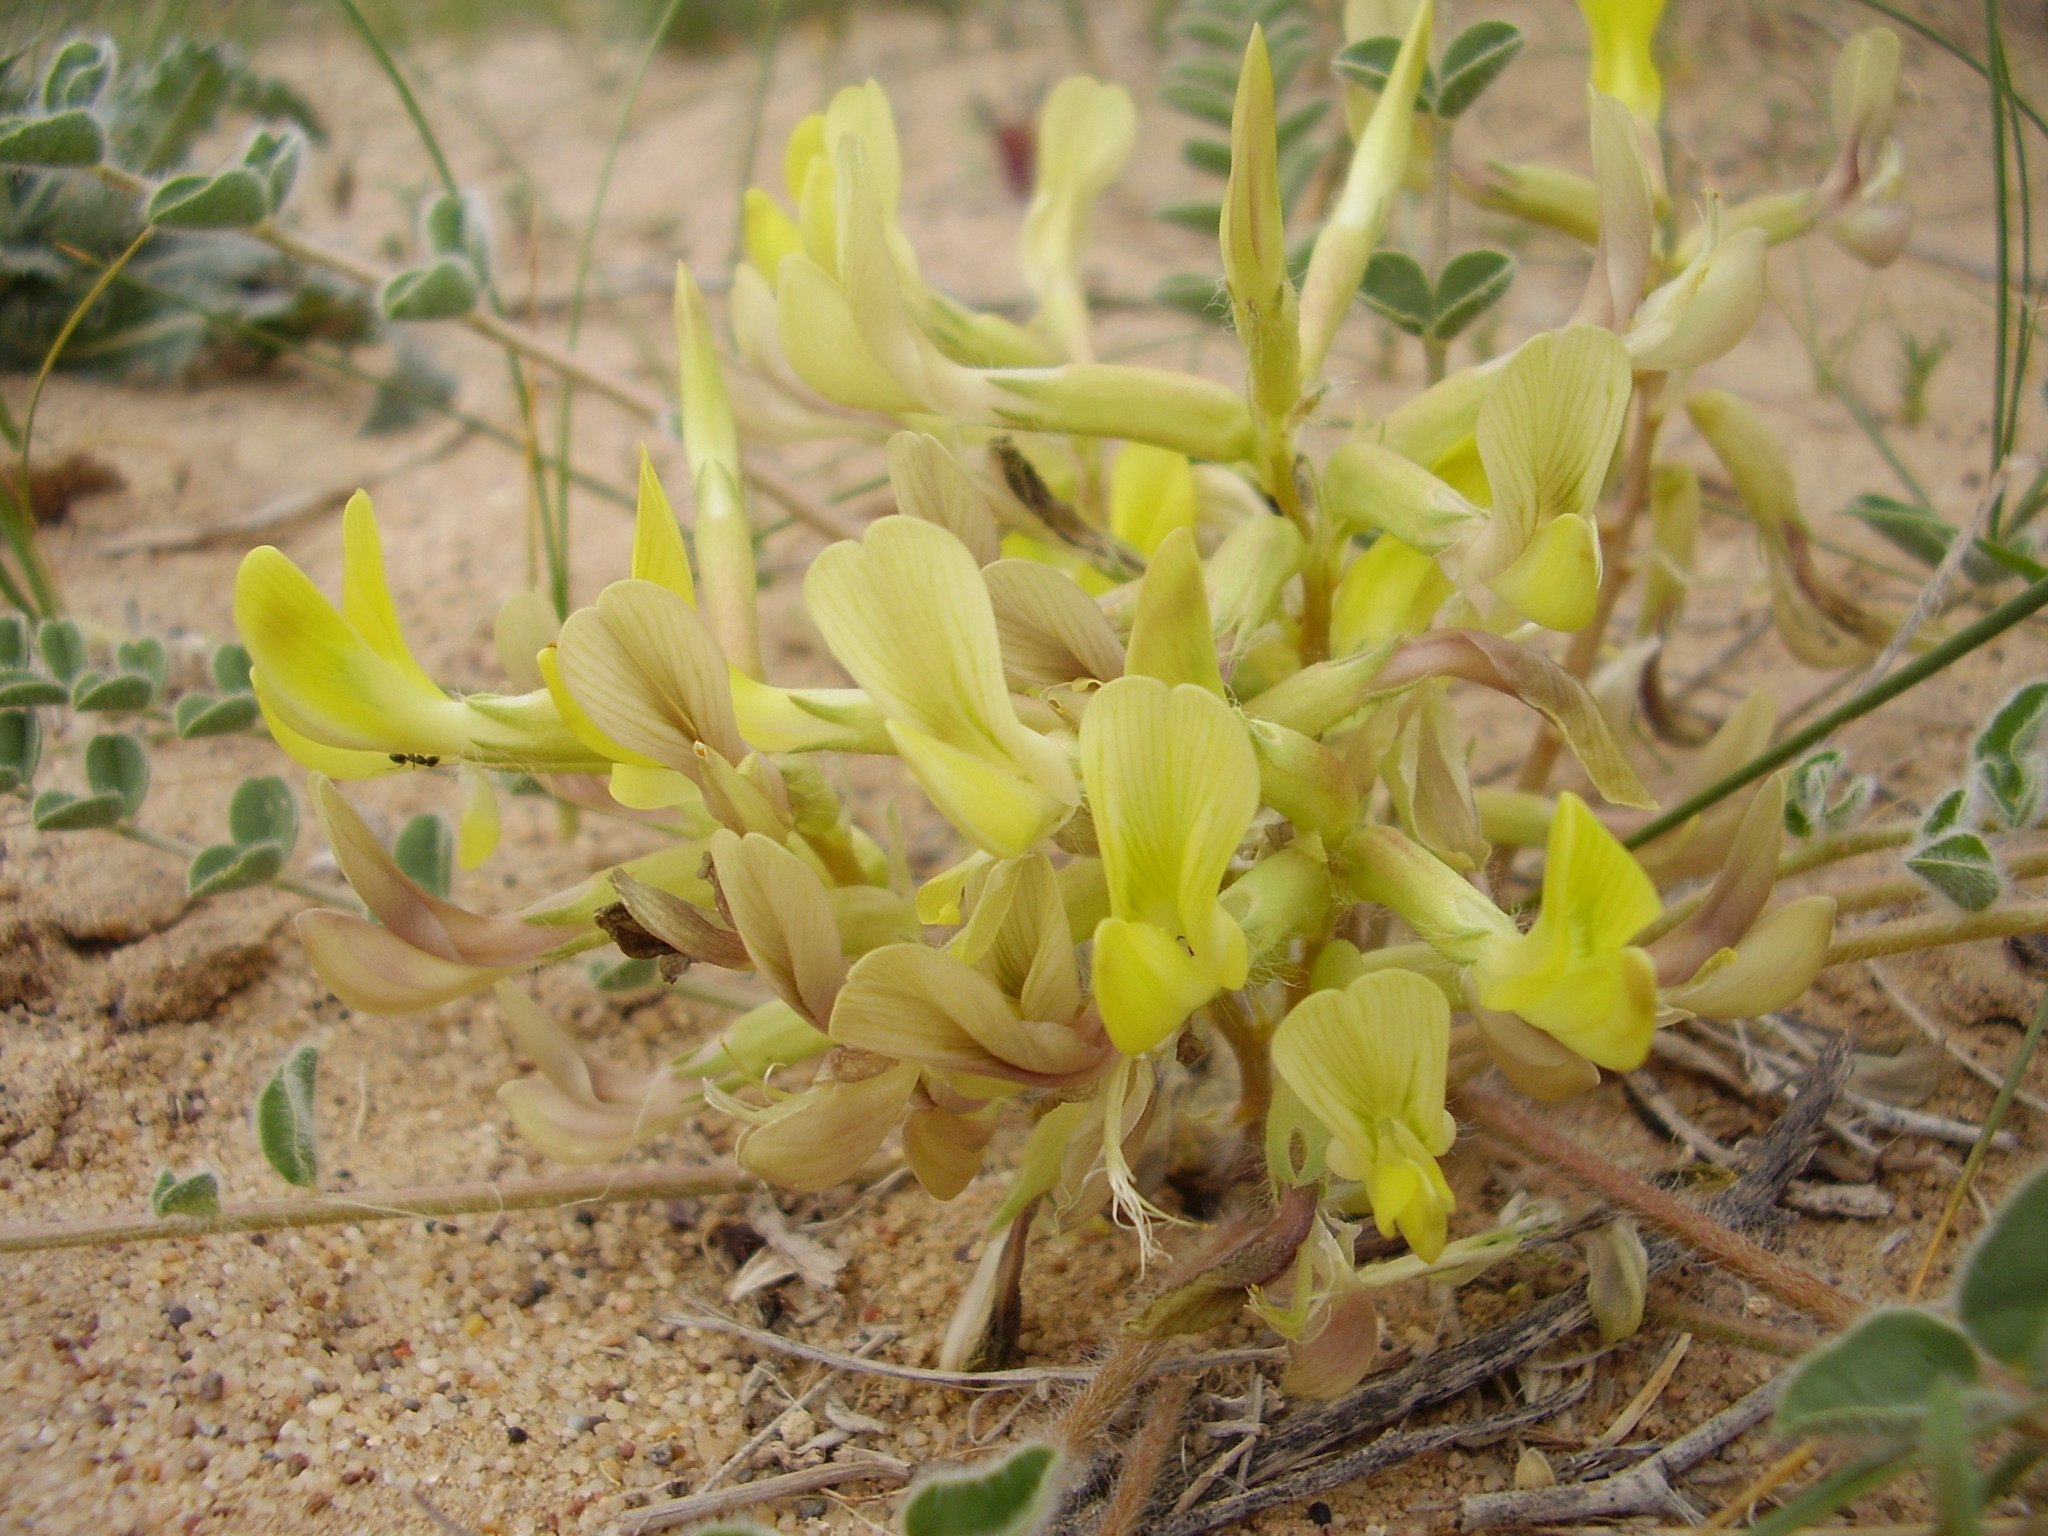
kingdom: Plantae
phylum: Tracheophyta
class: Magnoliopsida
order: Fabales
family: Fabaceae
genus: Astragalus
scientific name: Astragalus flexus
